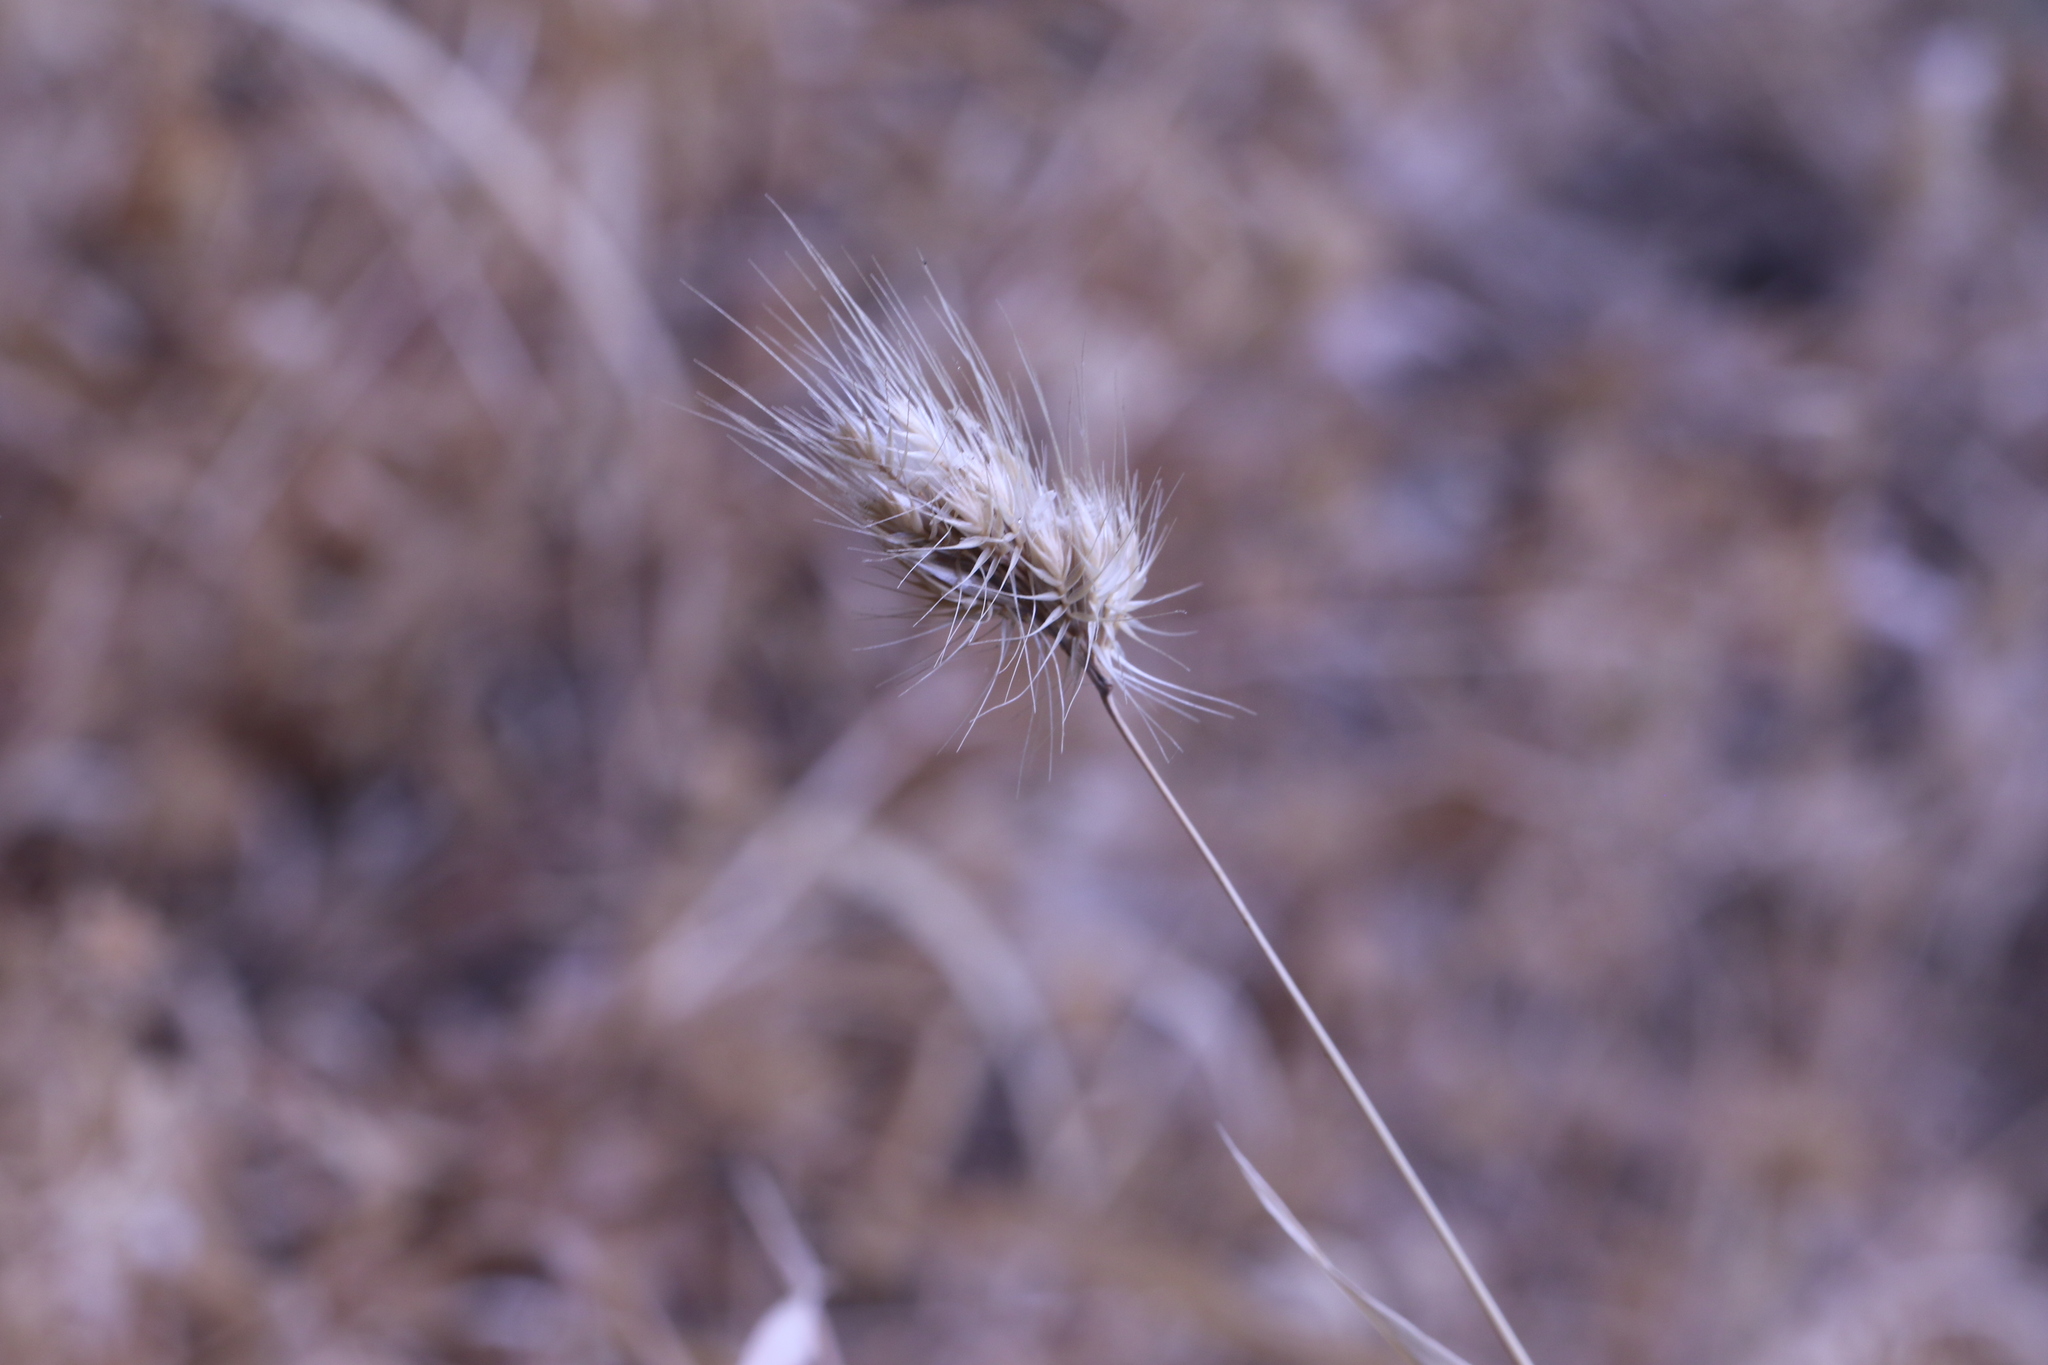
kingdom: Plantae
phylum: Tracheophyta
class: Liliopsida
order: Poales
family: Poaceae
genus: Cynosurus
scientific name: Cynosurus echinatus
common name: Rough dog's-tail
